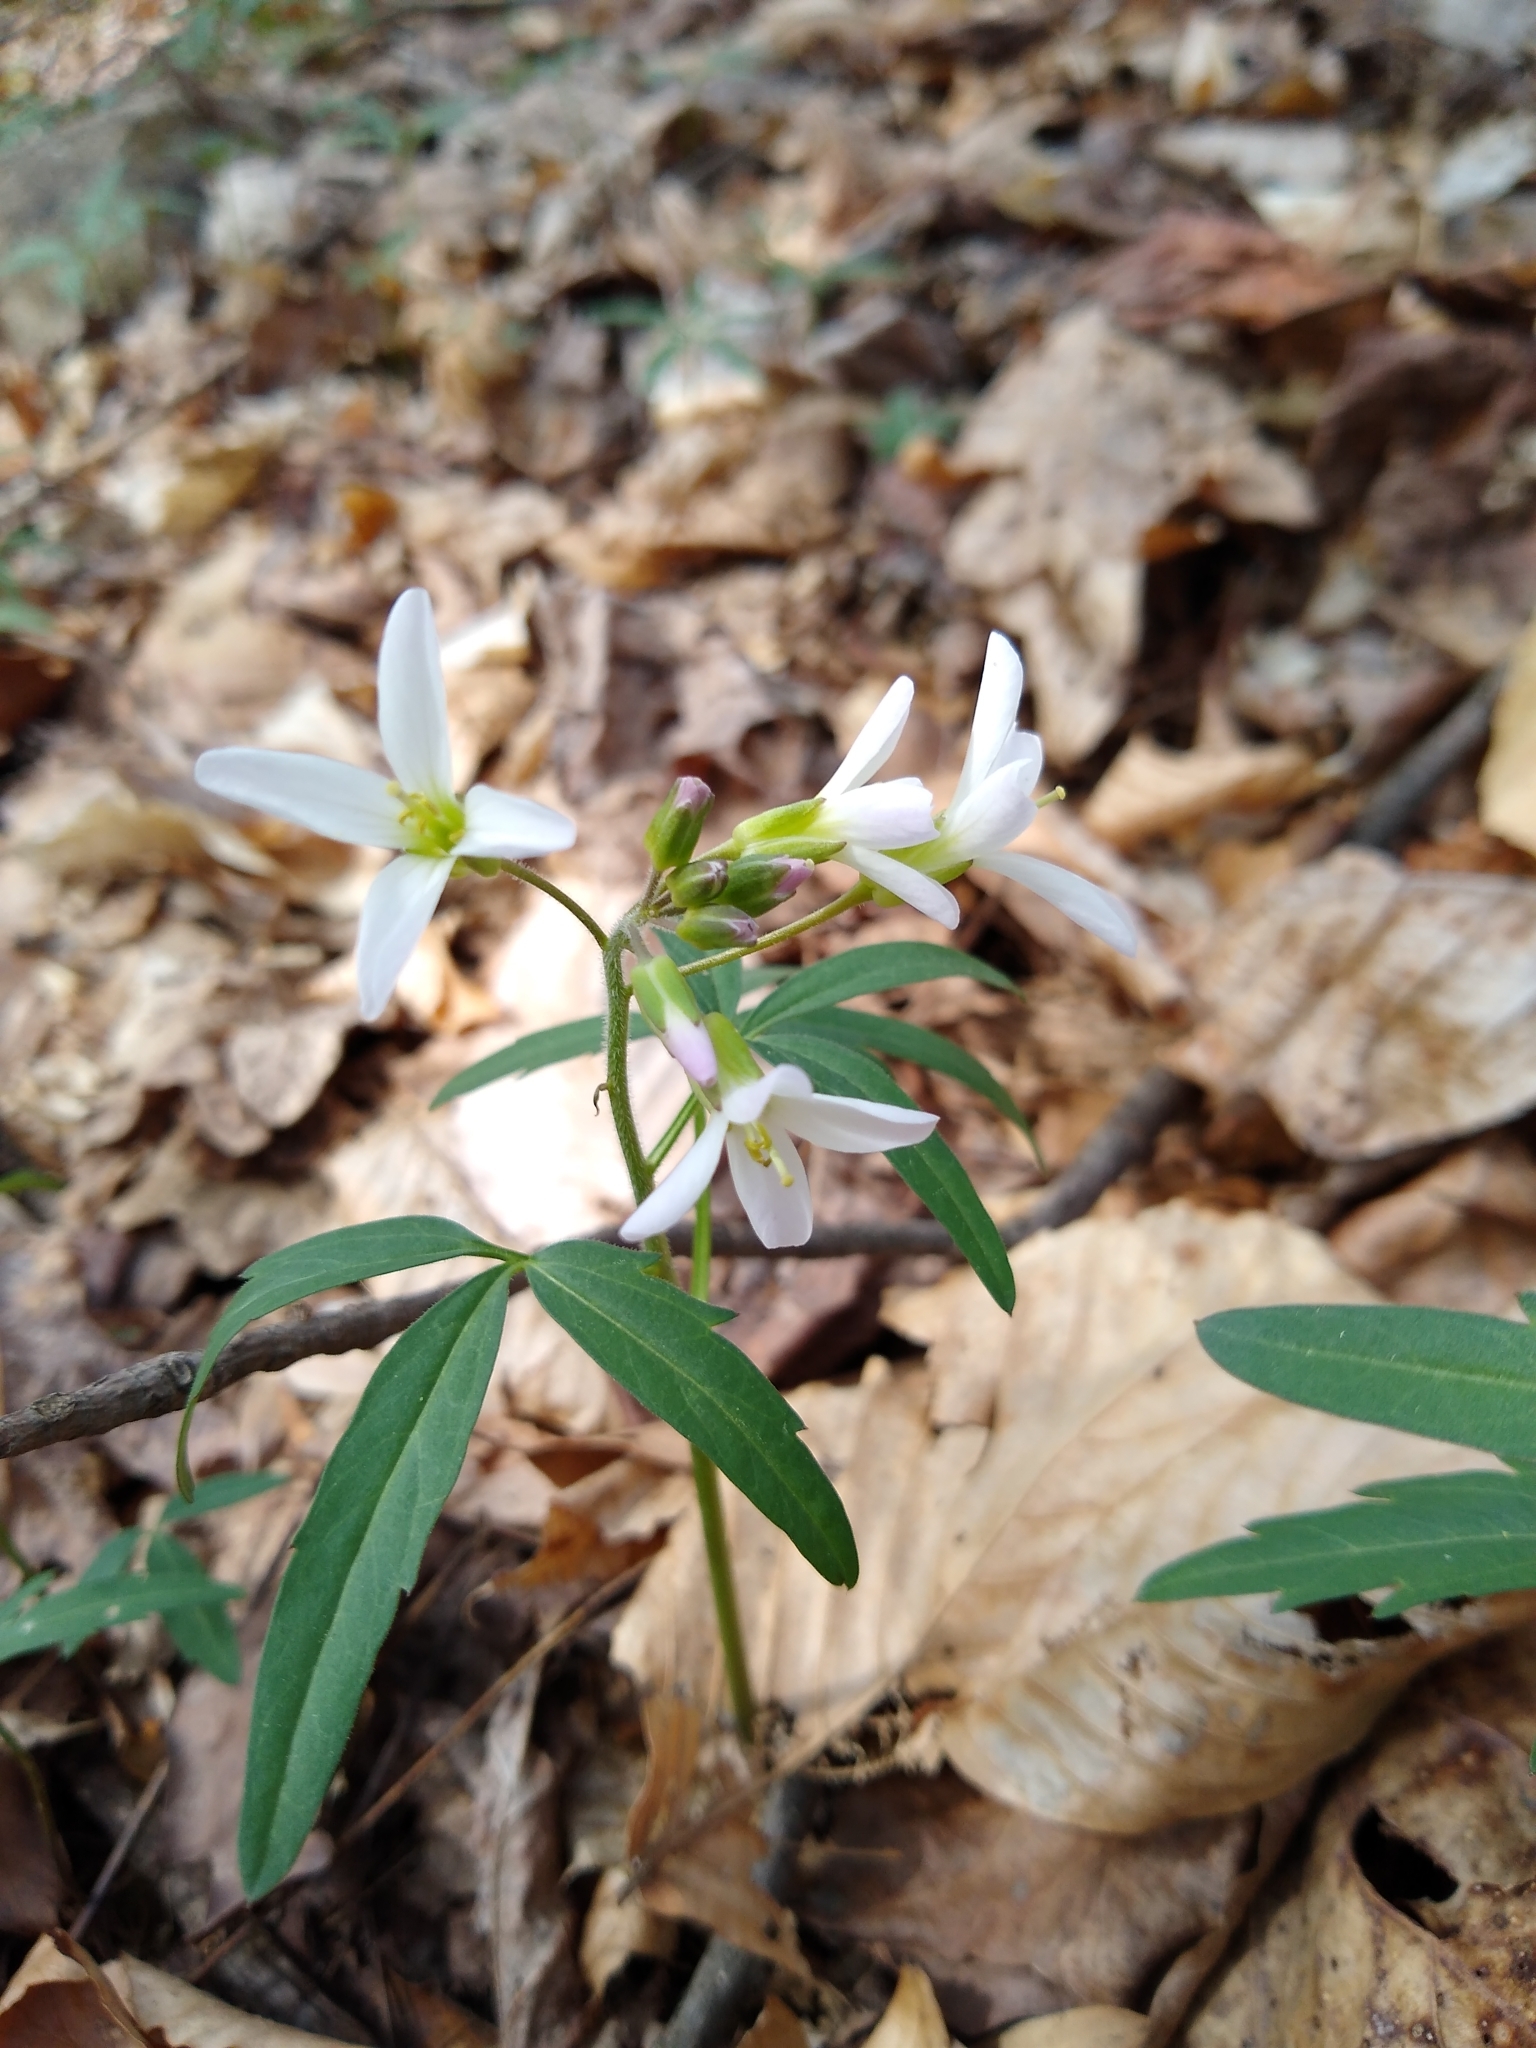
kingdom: Plantae
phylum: Tracheophyta
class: Magnoliopsida
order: Brassicales
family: Brassicaceae
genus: Cardamine
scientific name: Cardamine concatenata
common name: Cut-leaf toothcup
